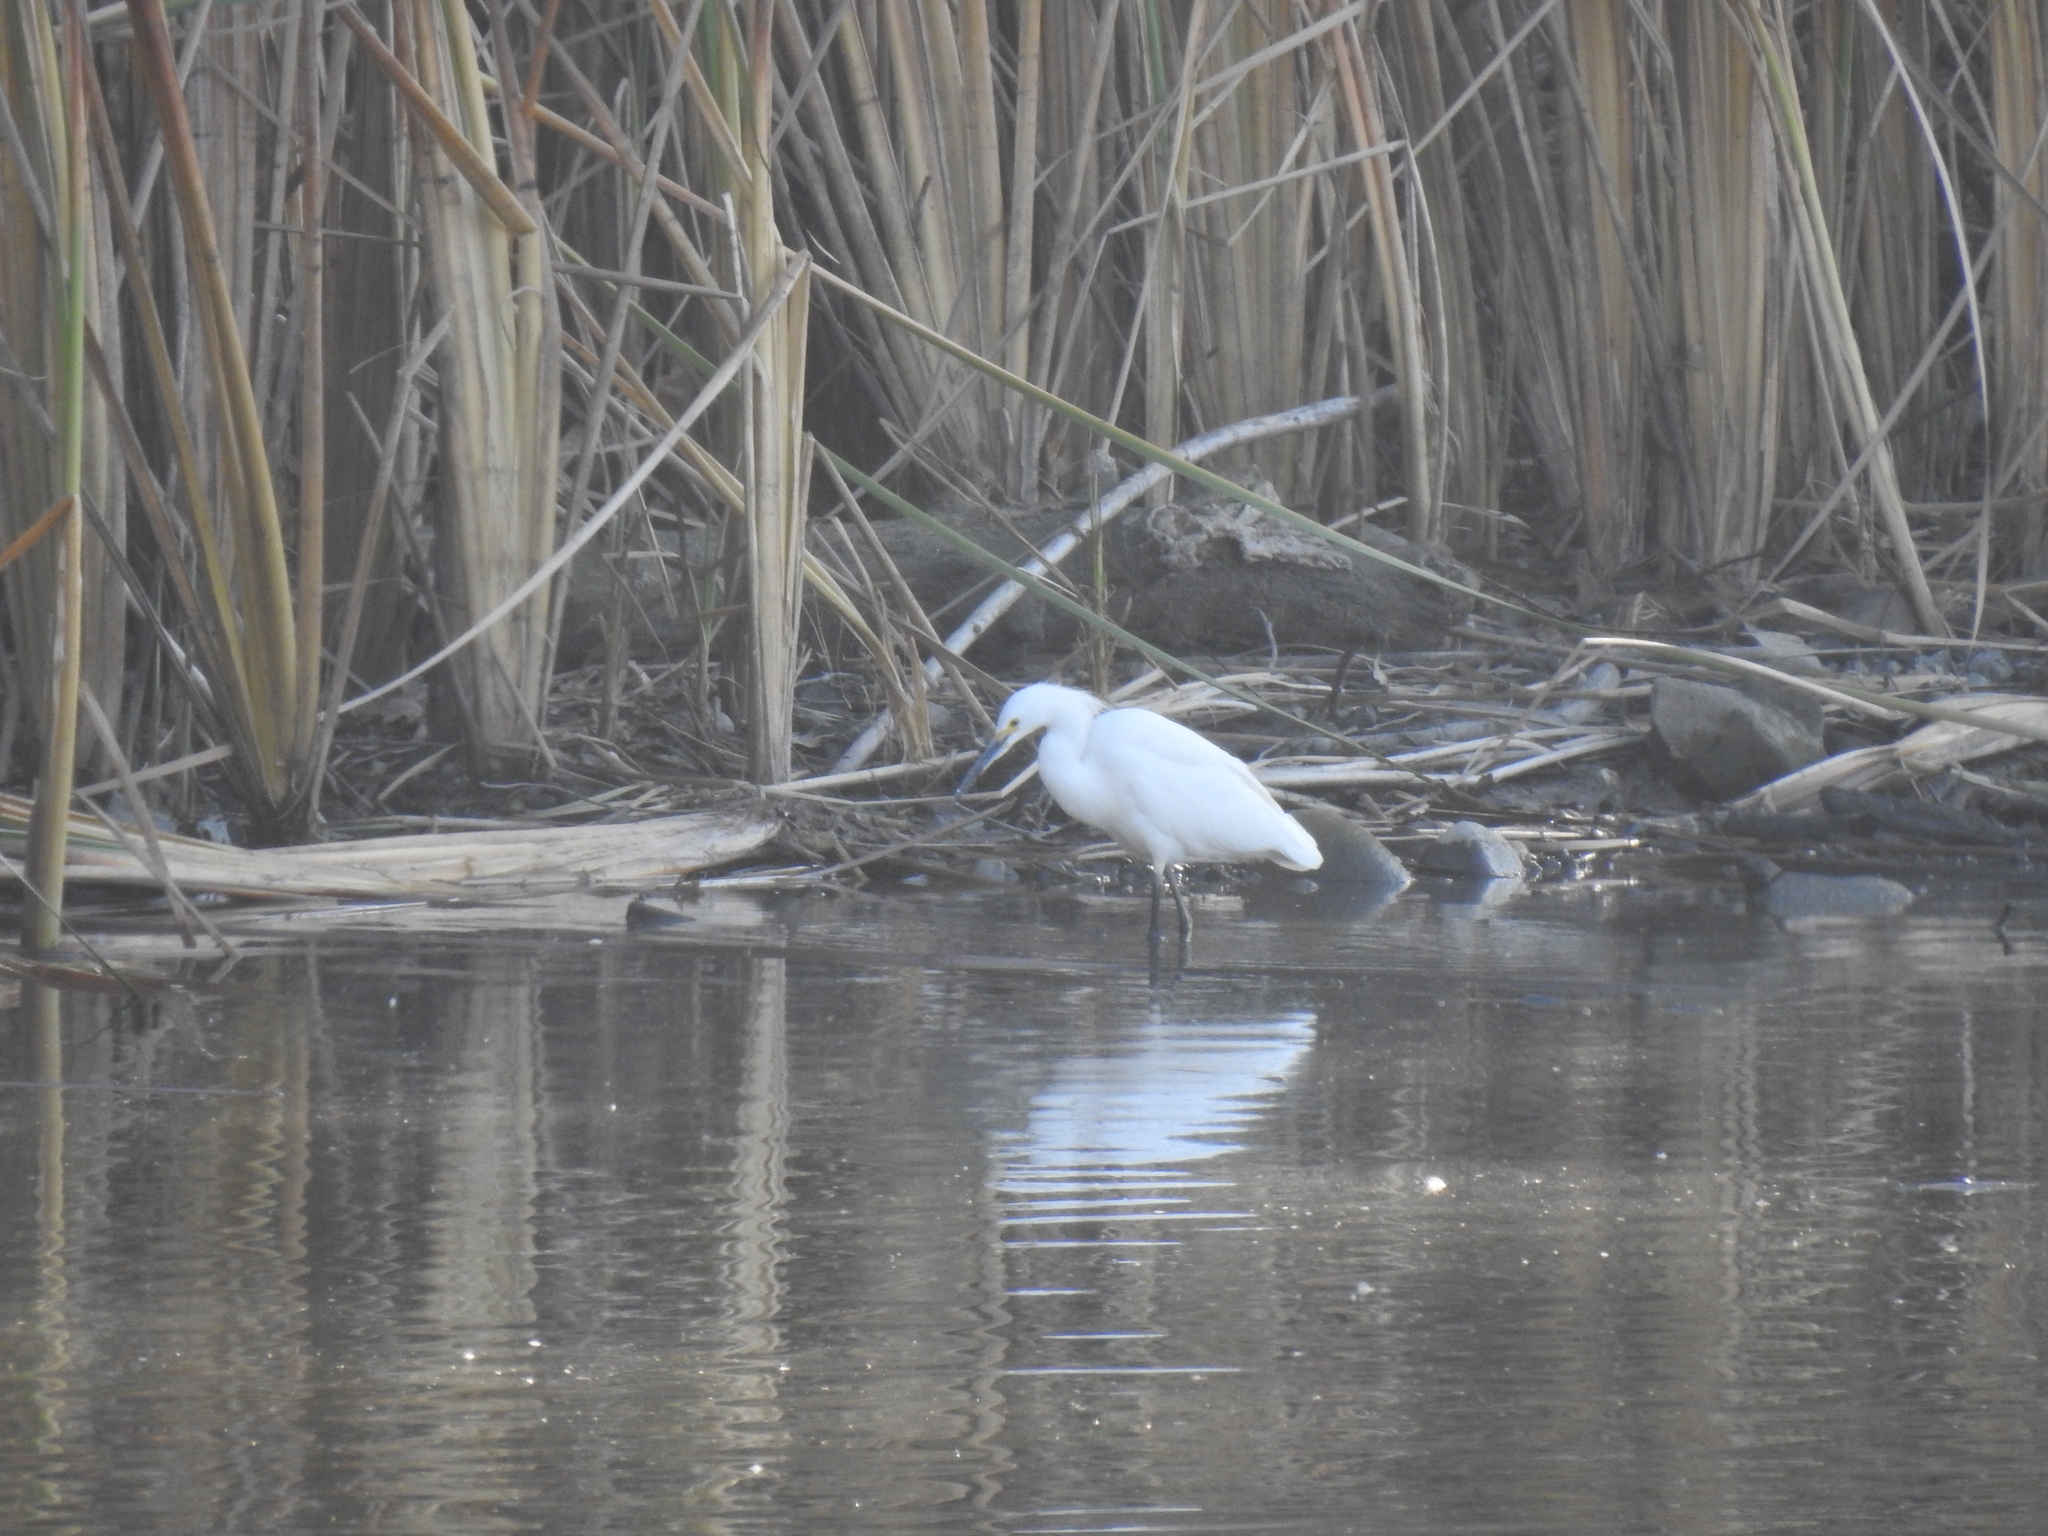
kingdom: Animalia
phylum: Chordata
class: Aves
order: Pelecaniformes
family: Ardeidae
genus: Egretta
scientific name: Egretta thula
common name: Snowy egret
